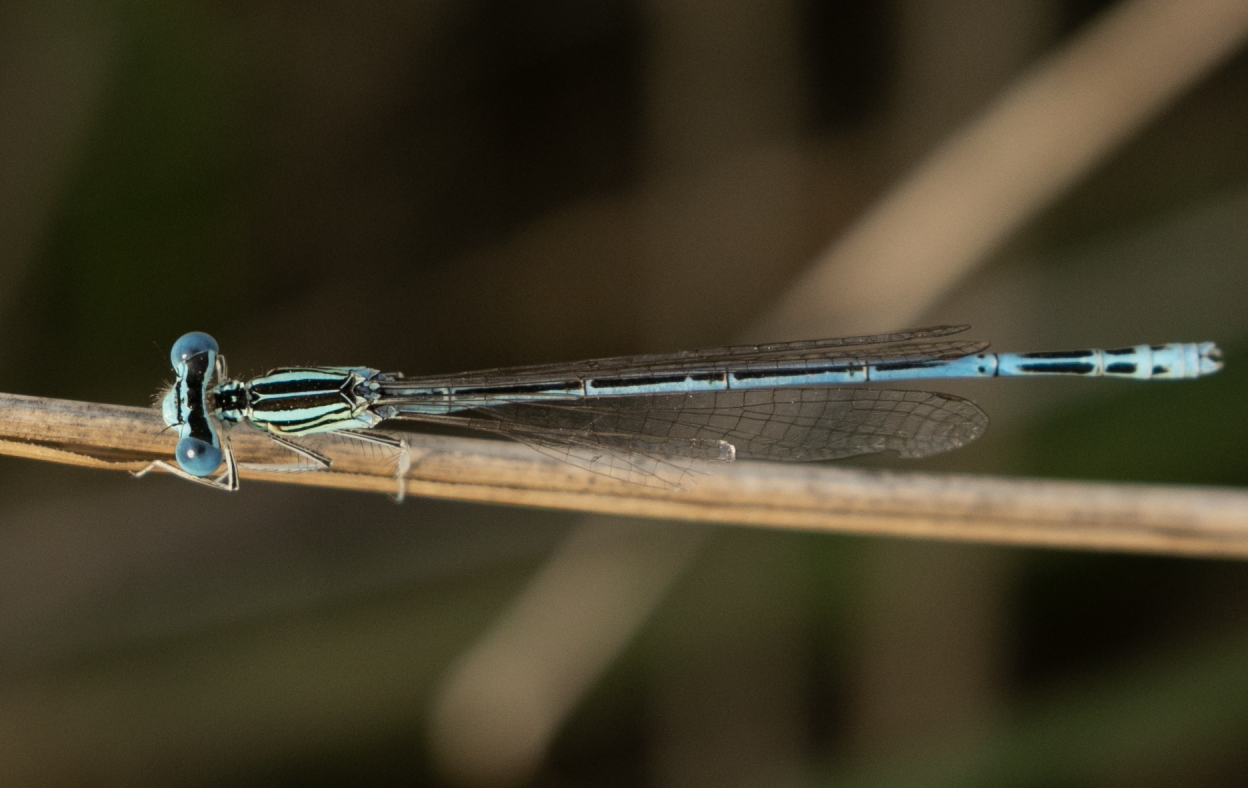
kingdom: Animalia
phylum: Arthropoda
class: Insecta
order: Odonata
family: Platycnemididae
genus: Platycnemis
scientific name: Platycnemis pennipes
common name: White-legged damselfly
